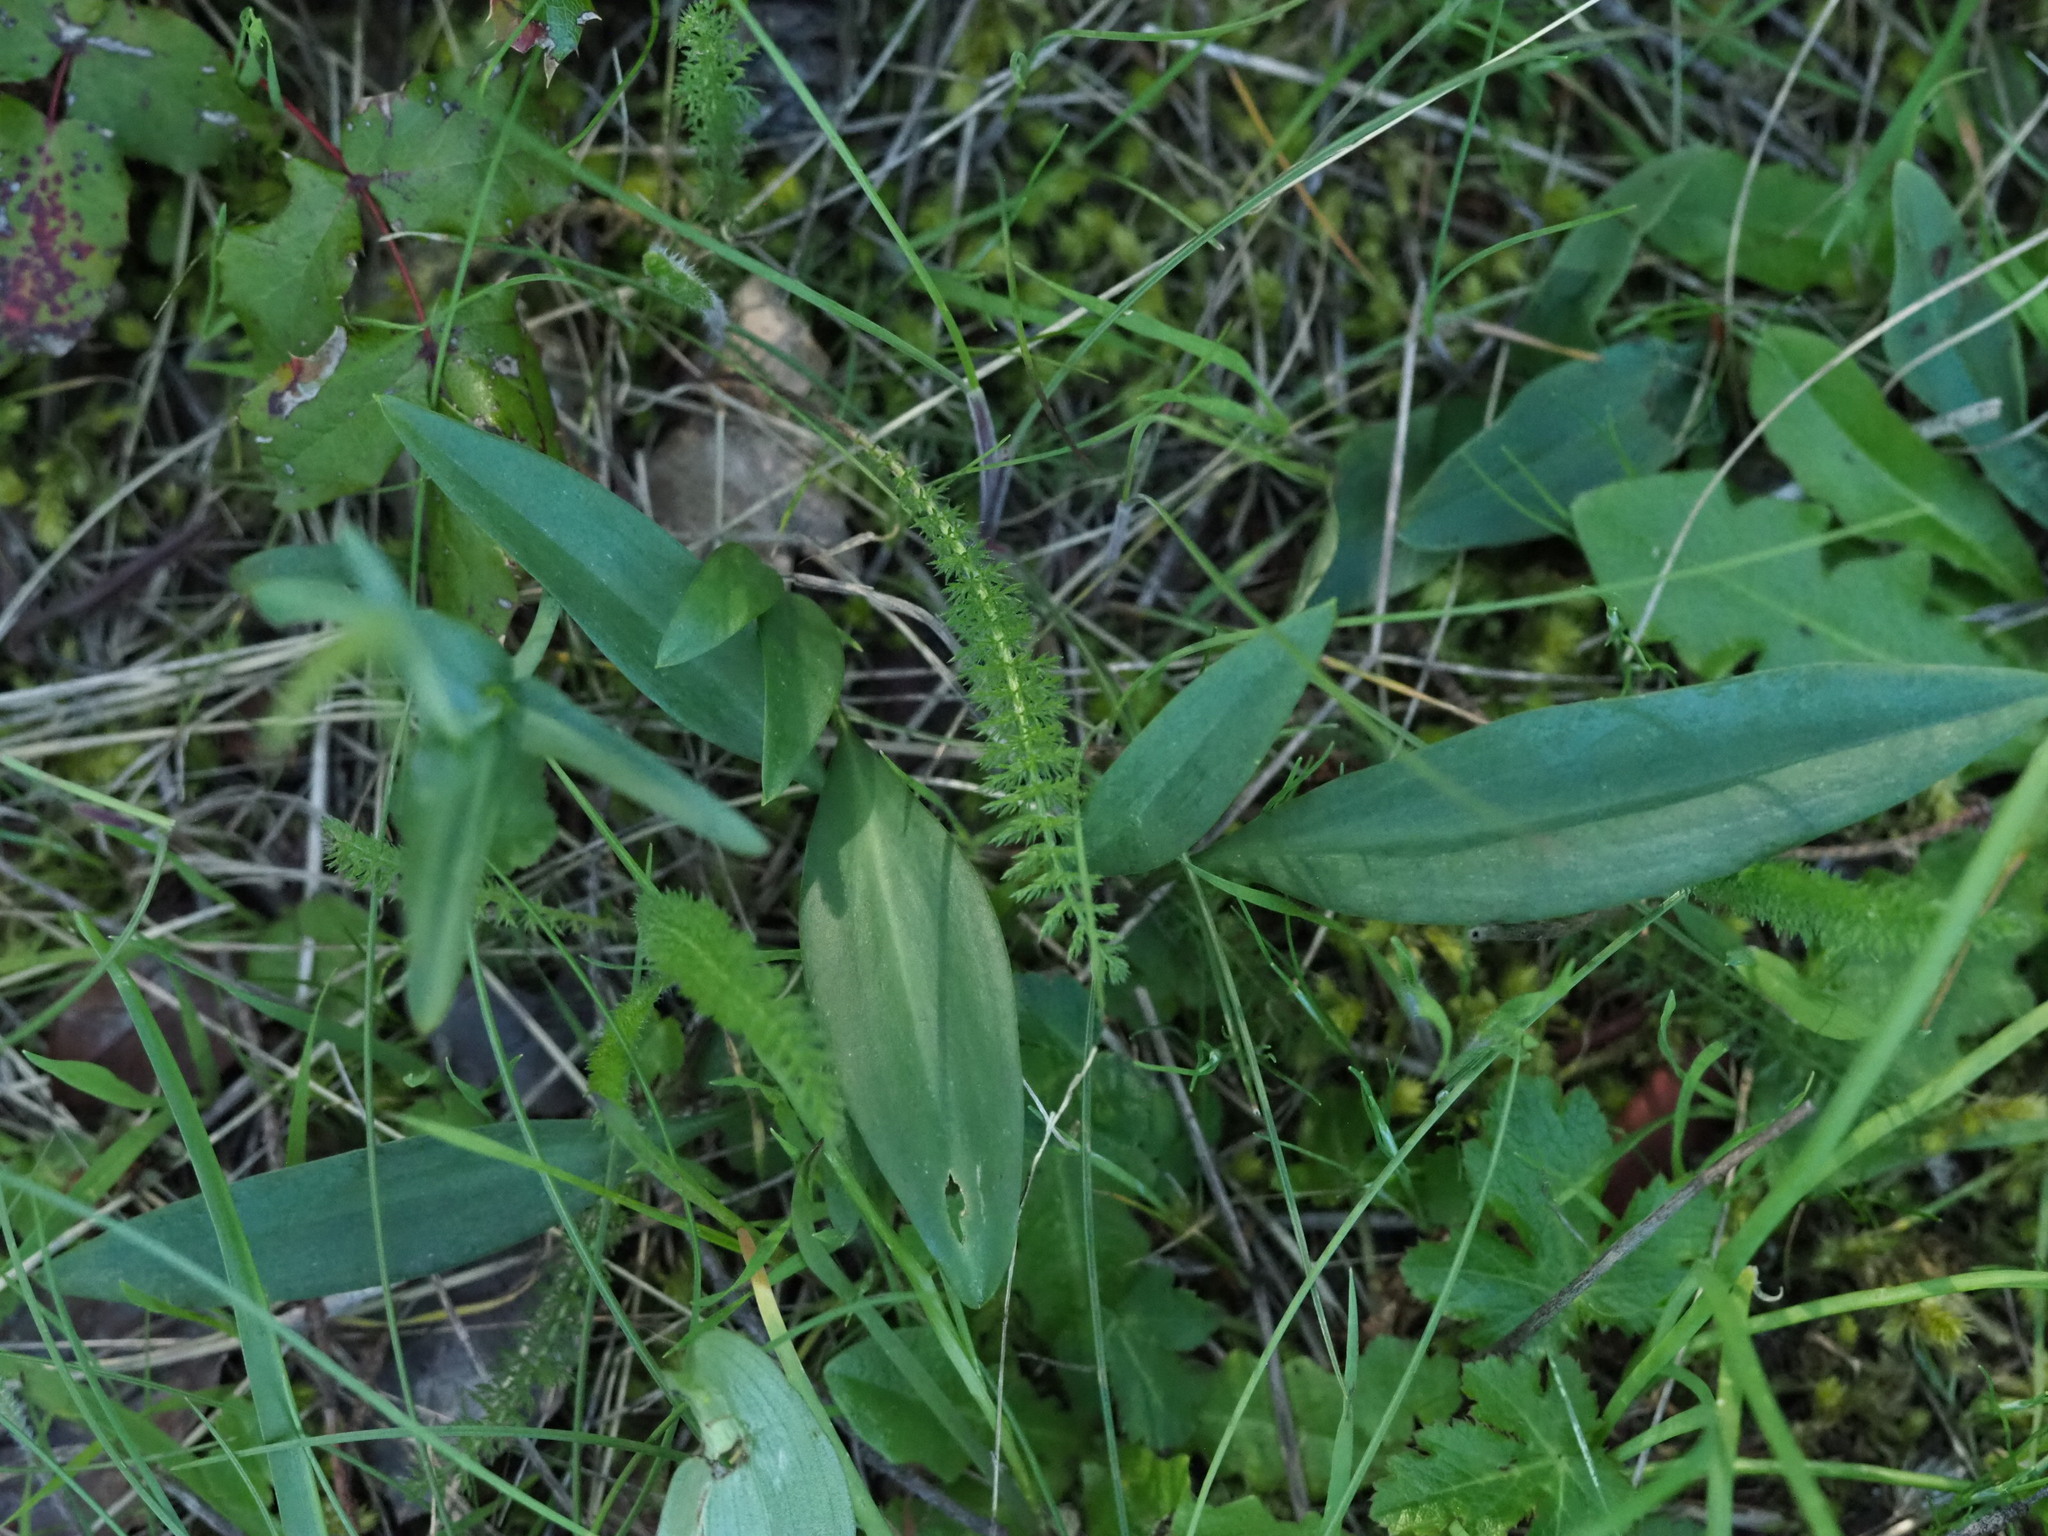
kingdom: Plantae
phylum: Tracheophyta
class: Magnoliopsida
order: Asterales
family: Asteraceae
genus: Achillea
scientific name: Achillea millefolium
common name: Yarrow
